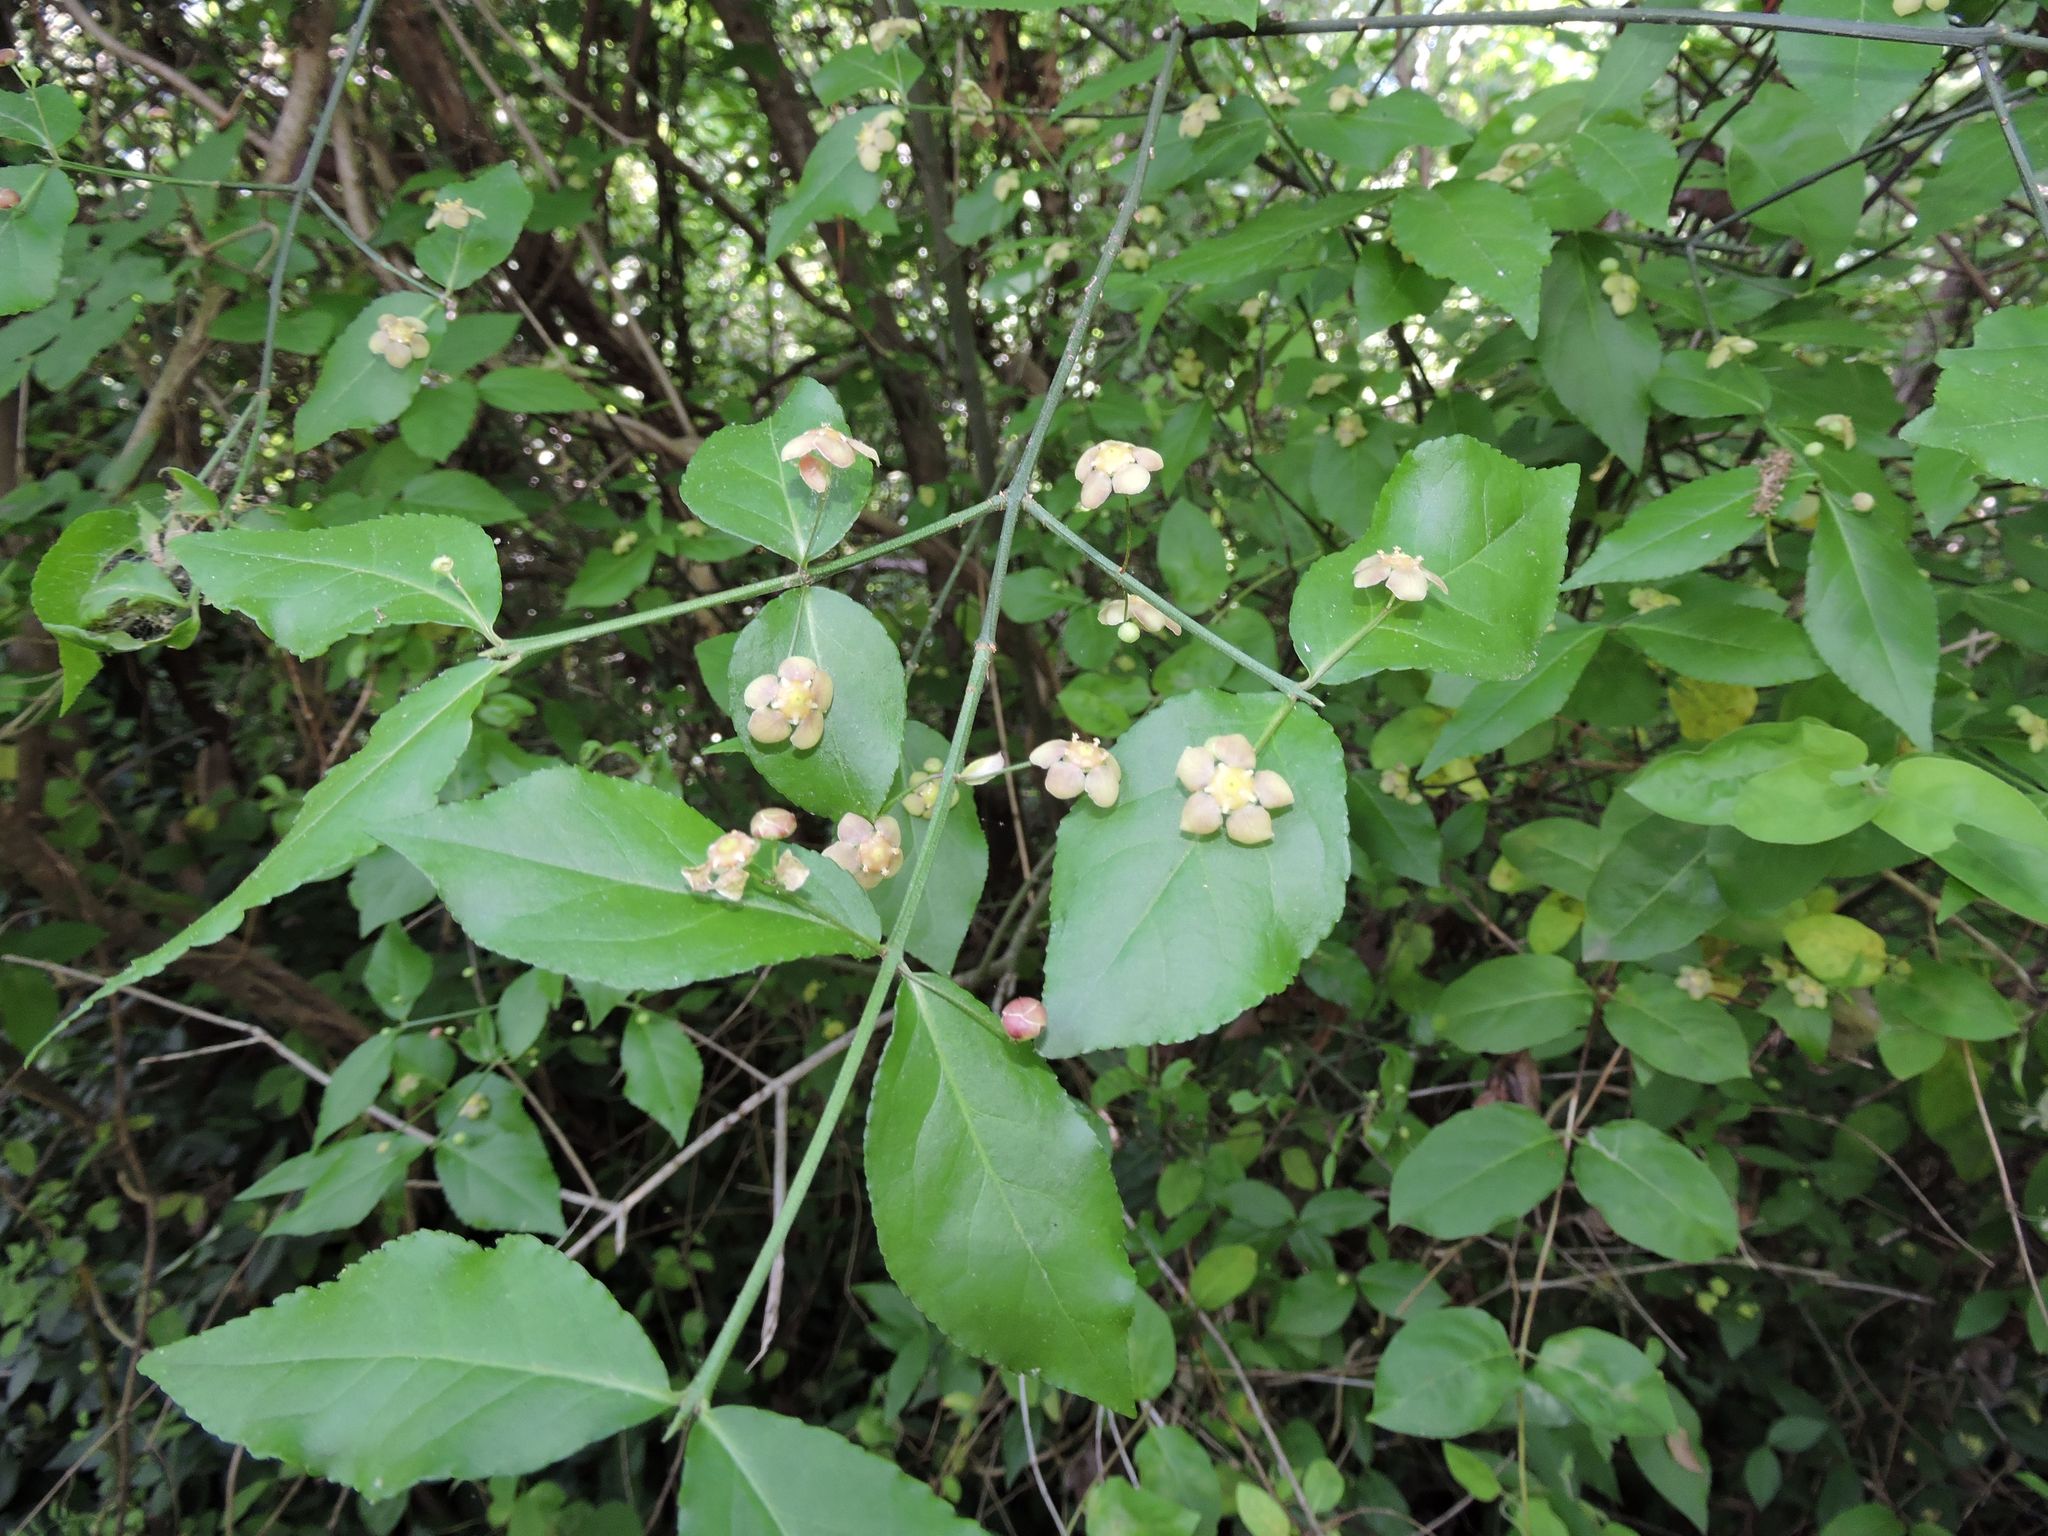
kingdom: Plantae
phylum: Tracheophyta
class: Magnoliopsida
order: Celastrales
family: Celastraceae
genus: Euonymus
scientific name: Euonymus americanus
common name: Bursting-heart
